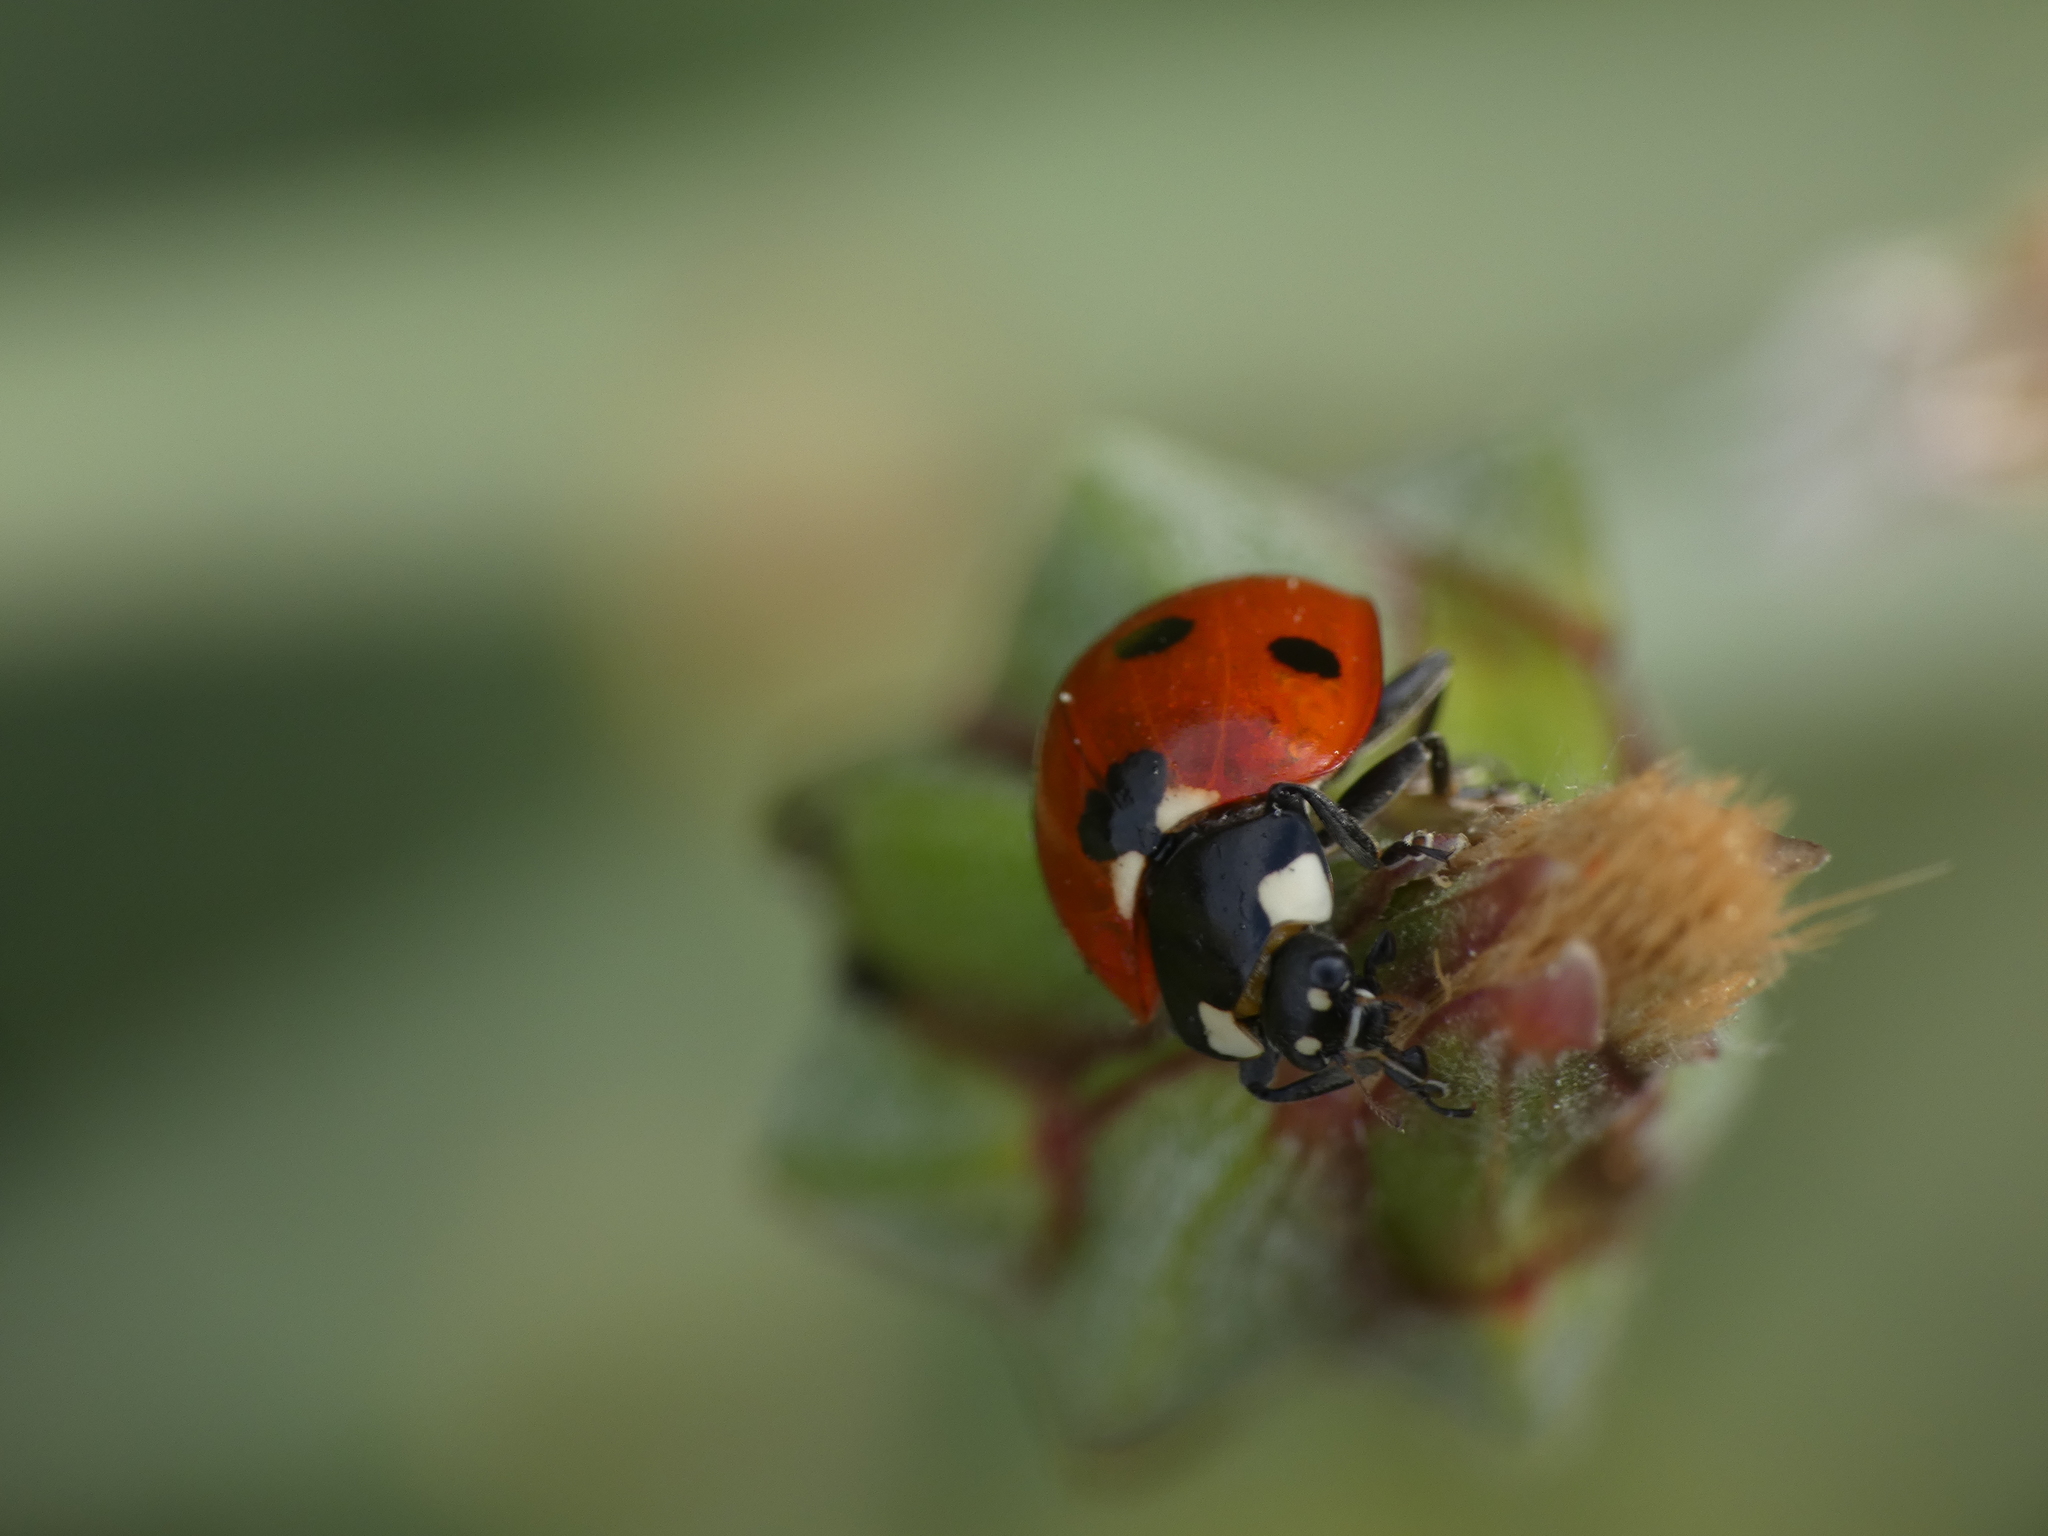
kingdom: Animalia
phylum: Arthropoda
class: Insecta
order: Coleoptera
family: Coccinellidae
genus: Coccinella
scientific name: Coccinella septempunctata
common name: Sevenspotted lady beetle
